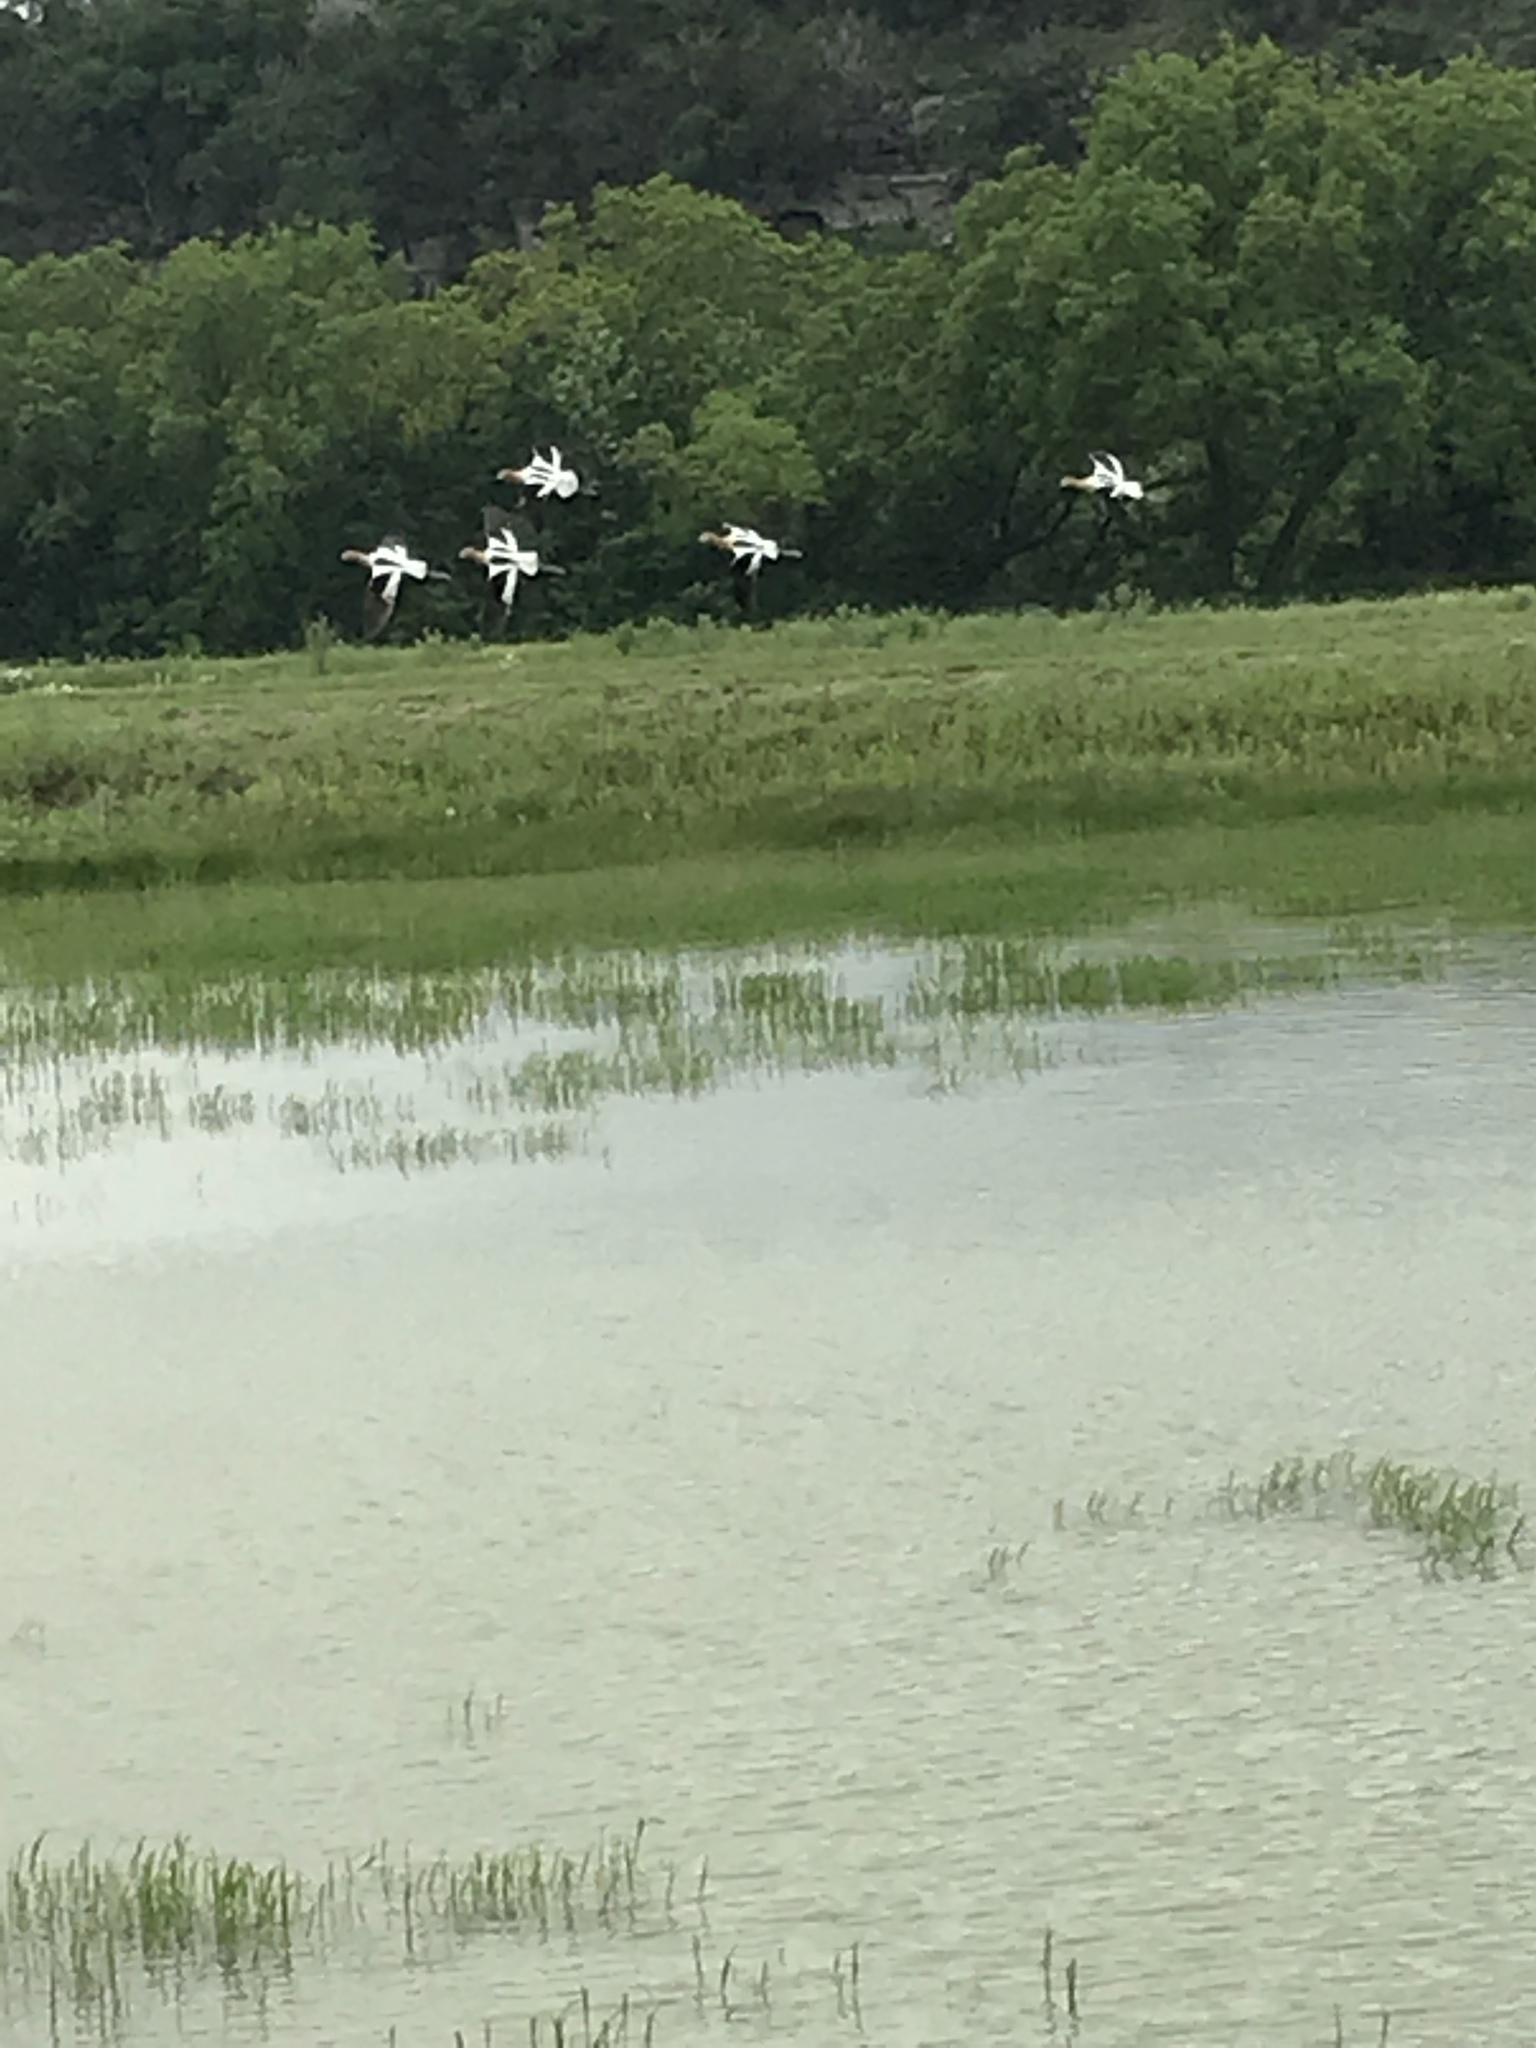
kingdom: Animalia
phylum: Chordata
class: Aves
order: Charadriiformes
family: Recurvirostridae
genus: Recurvirostra
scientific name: Recurvirostra americana
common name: American avocet
